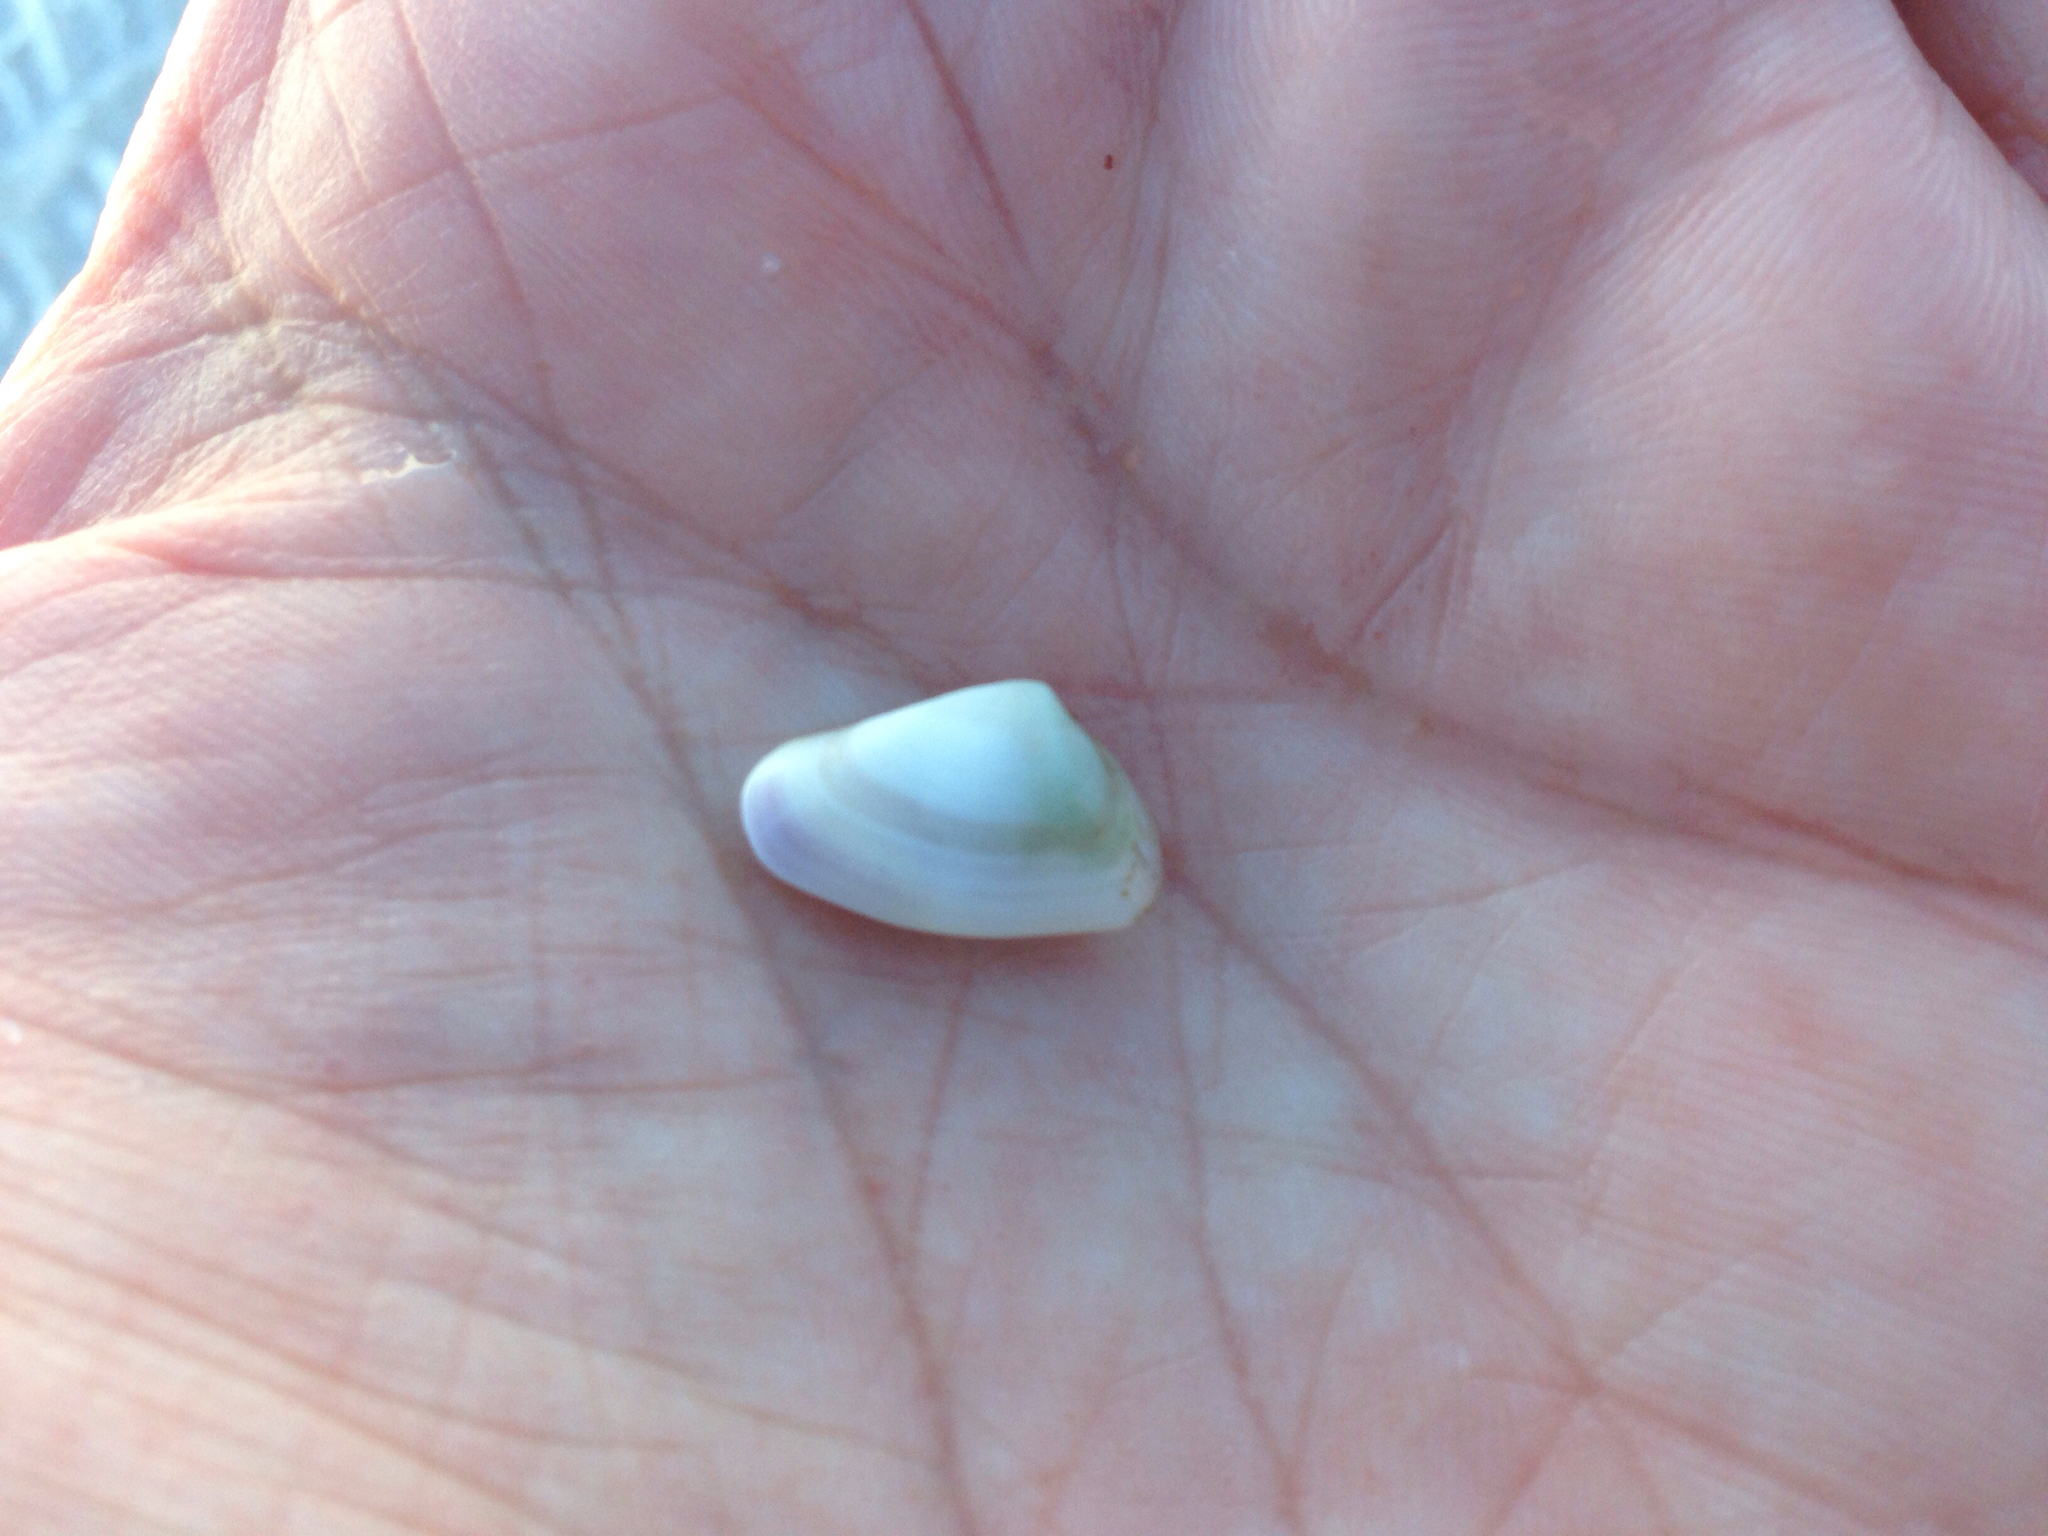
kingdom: Animalia
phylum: Mollusca
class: Bivalvia
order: Cardiida
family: Donacidae
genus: Donax
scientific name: Donax variabilis
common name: Butterfly shell
